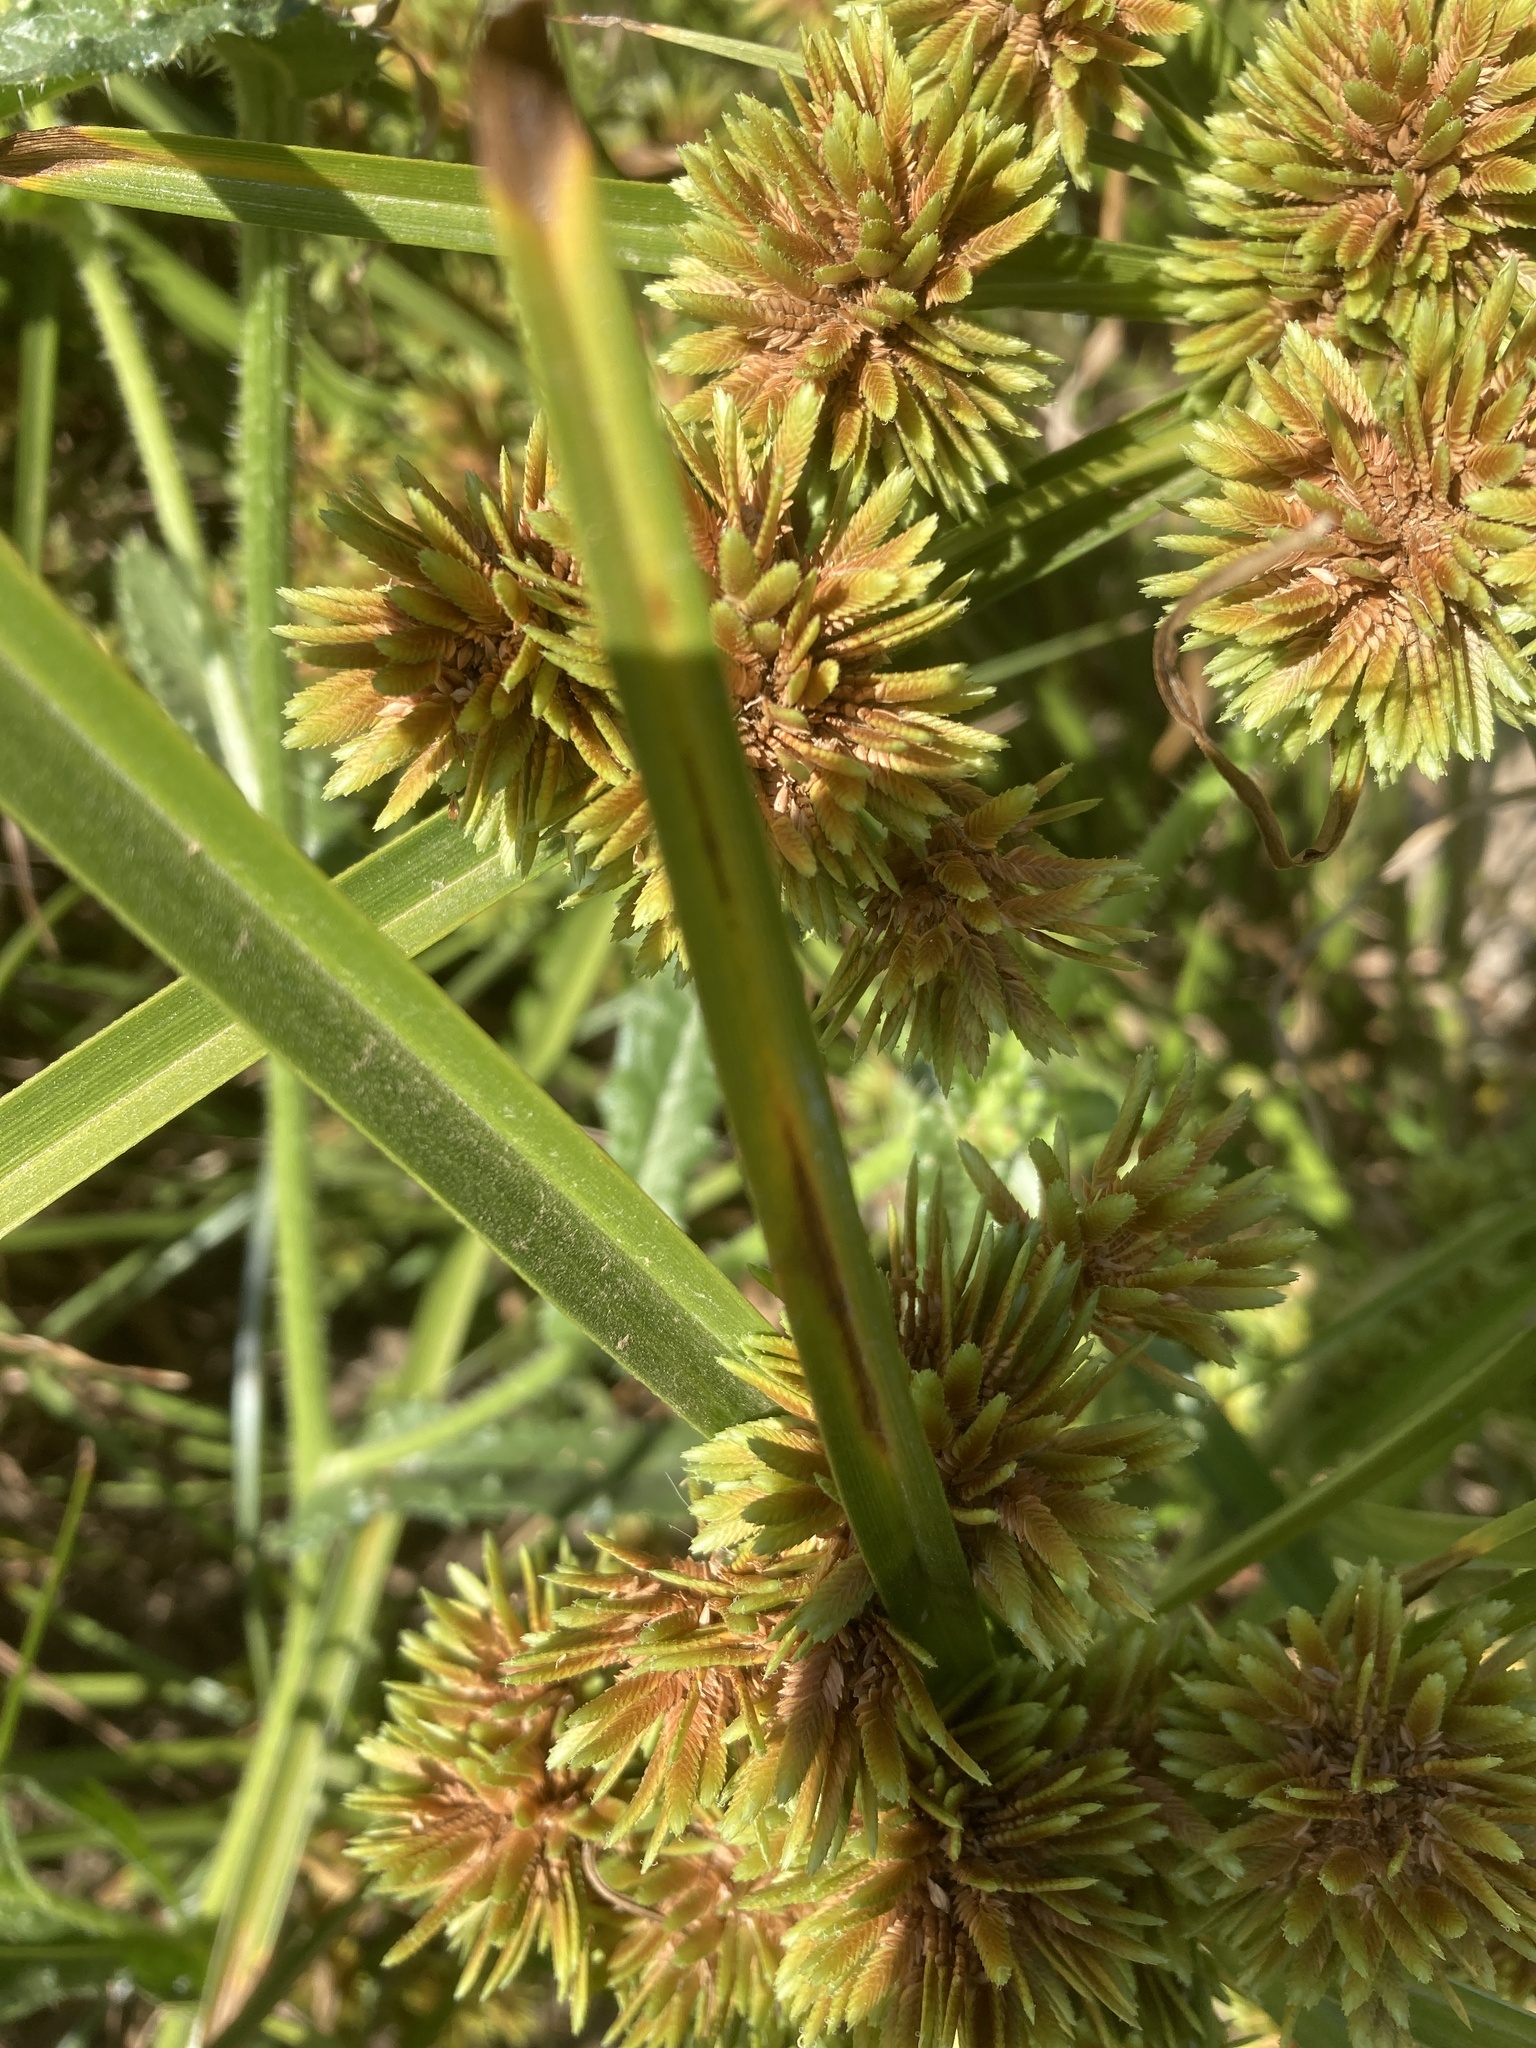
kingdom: Plantae
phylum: Tracheophyta
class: Liliopsida
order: Poales
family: Cyperaceae
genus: Cyperus
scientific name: Cyperus eragrostis
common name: Tall flatsedge
